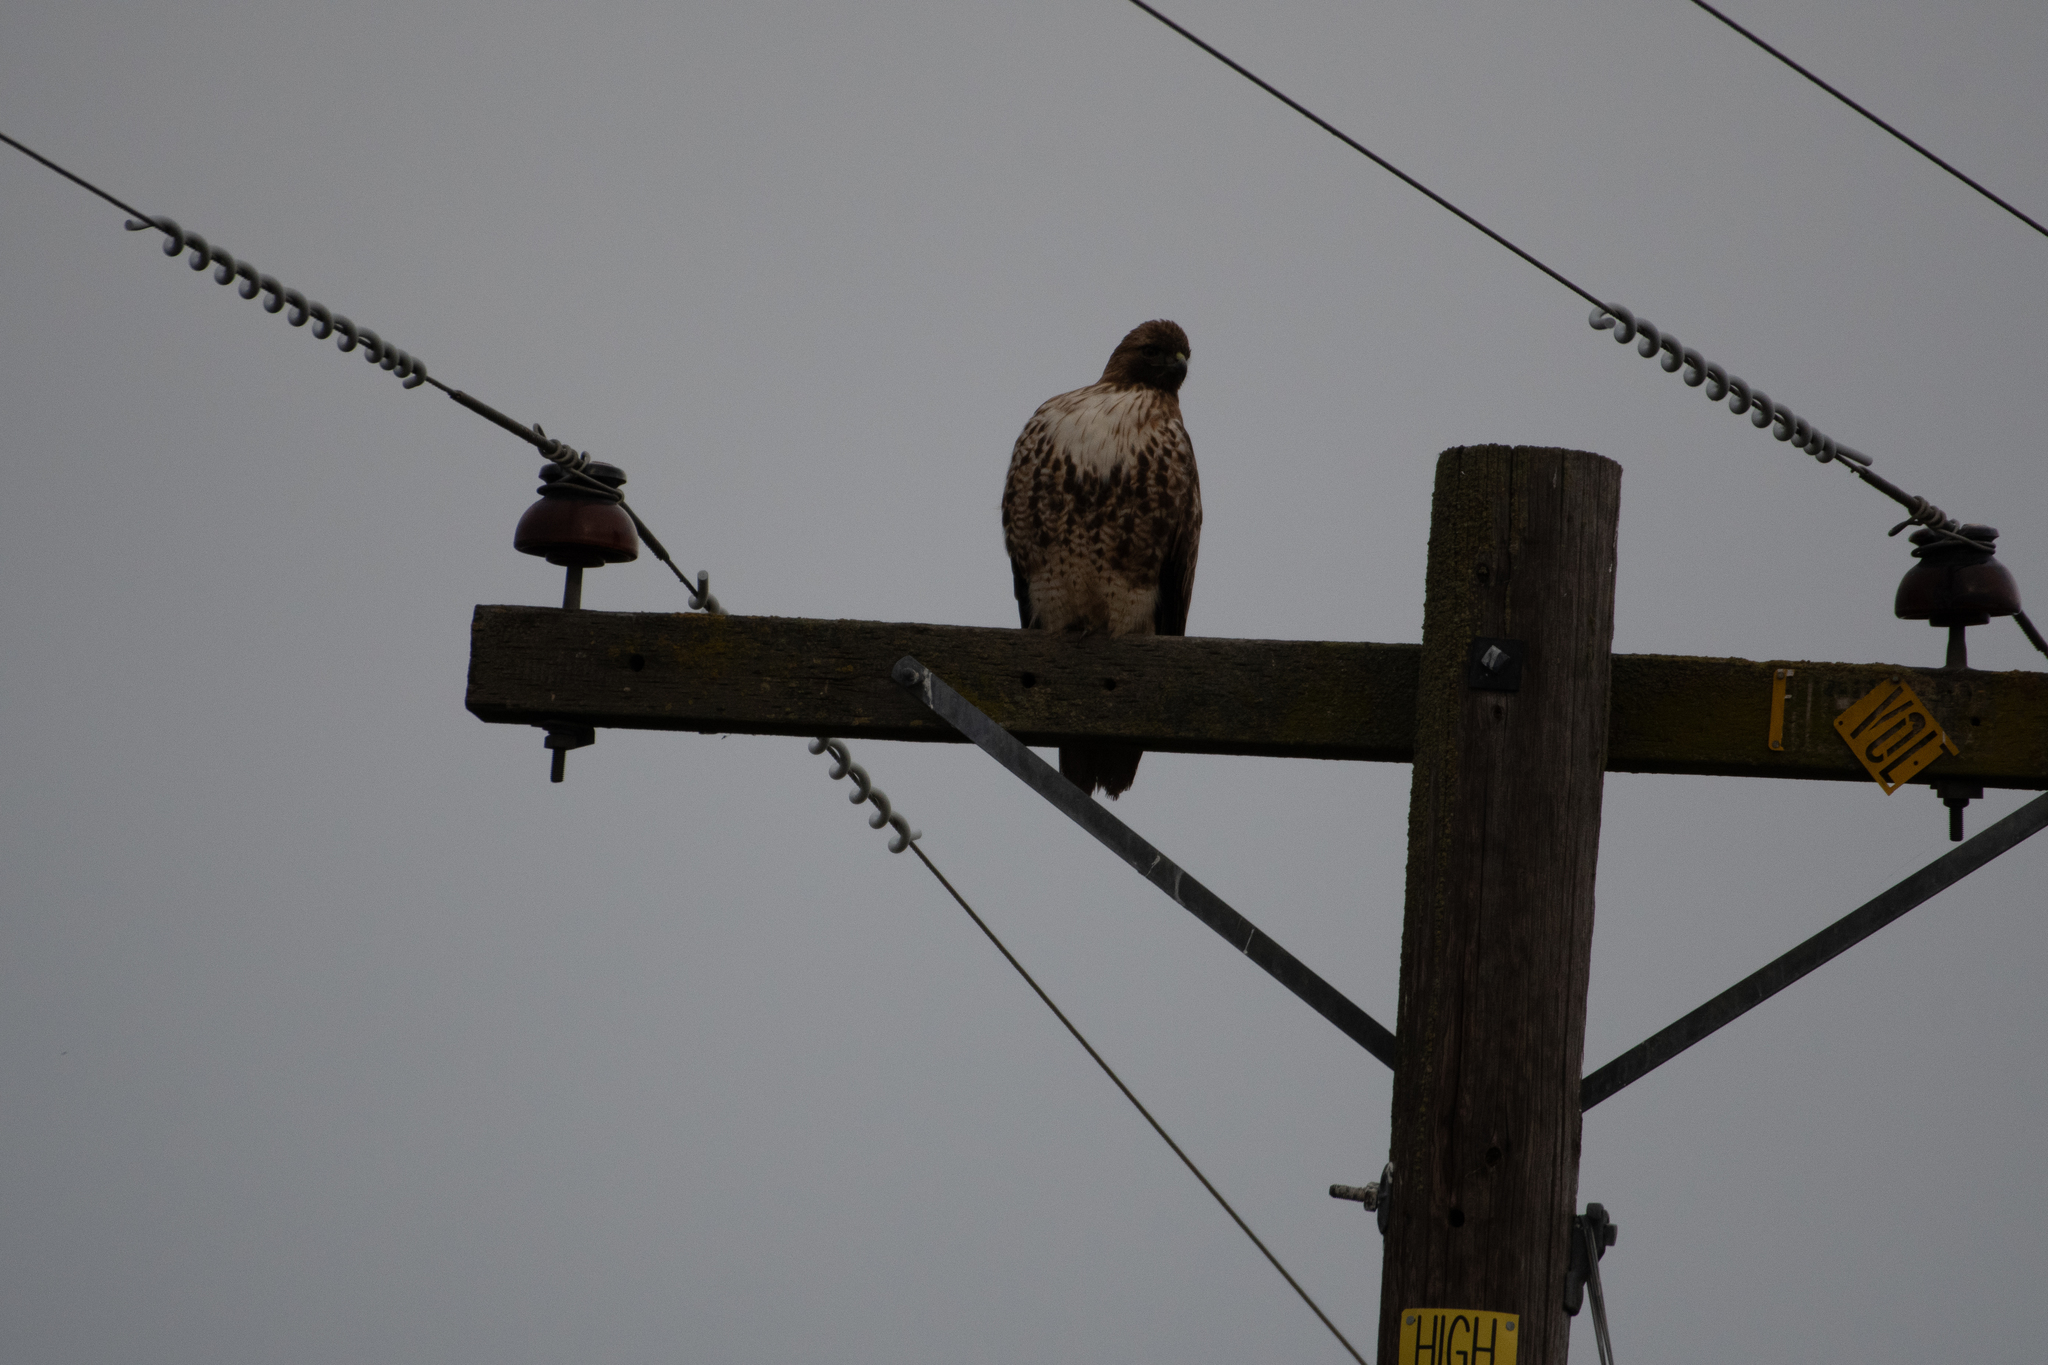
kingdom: Animalia
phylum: Chordata
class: Aves
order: Accipitriformes
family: Accipitridae
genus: Buteo
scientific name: Buteo jamaicensis
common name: Red-tailed hawk
